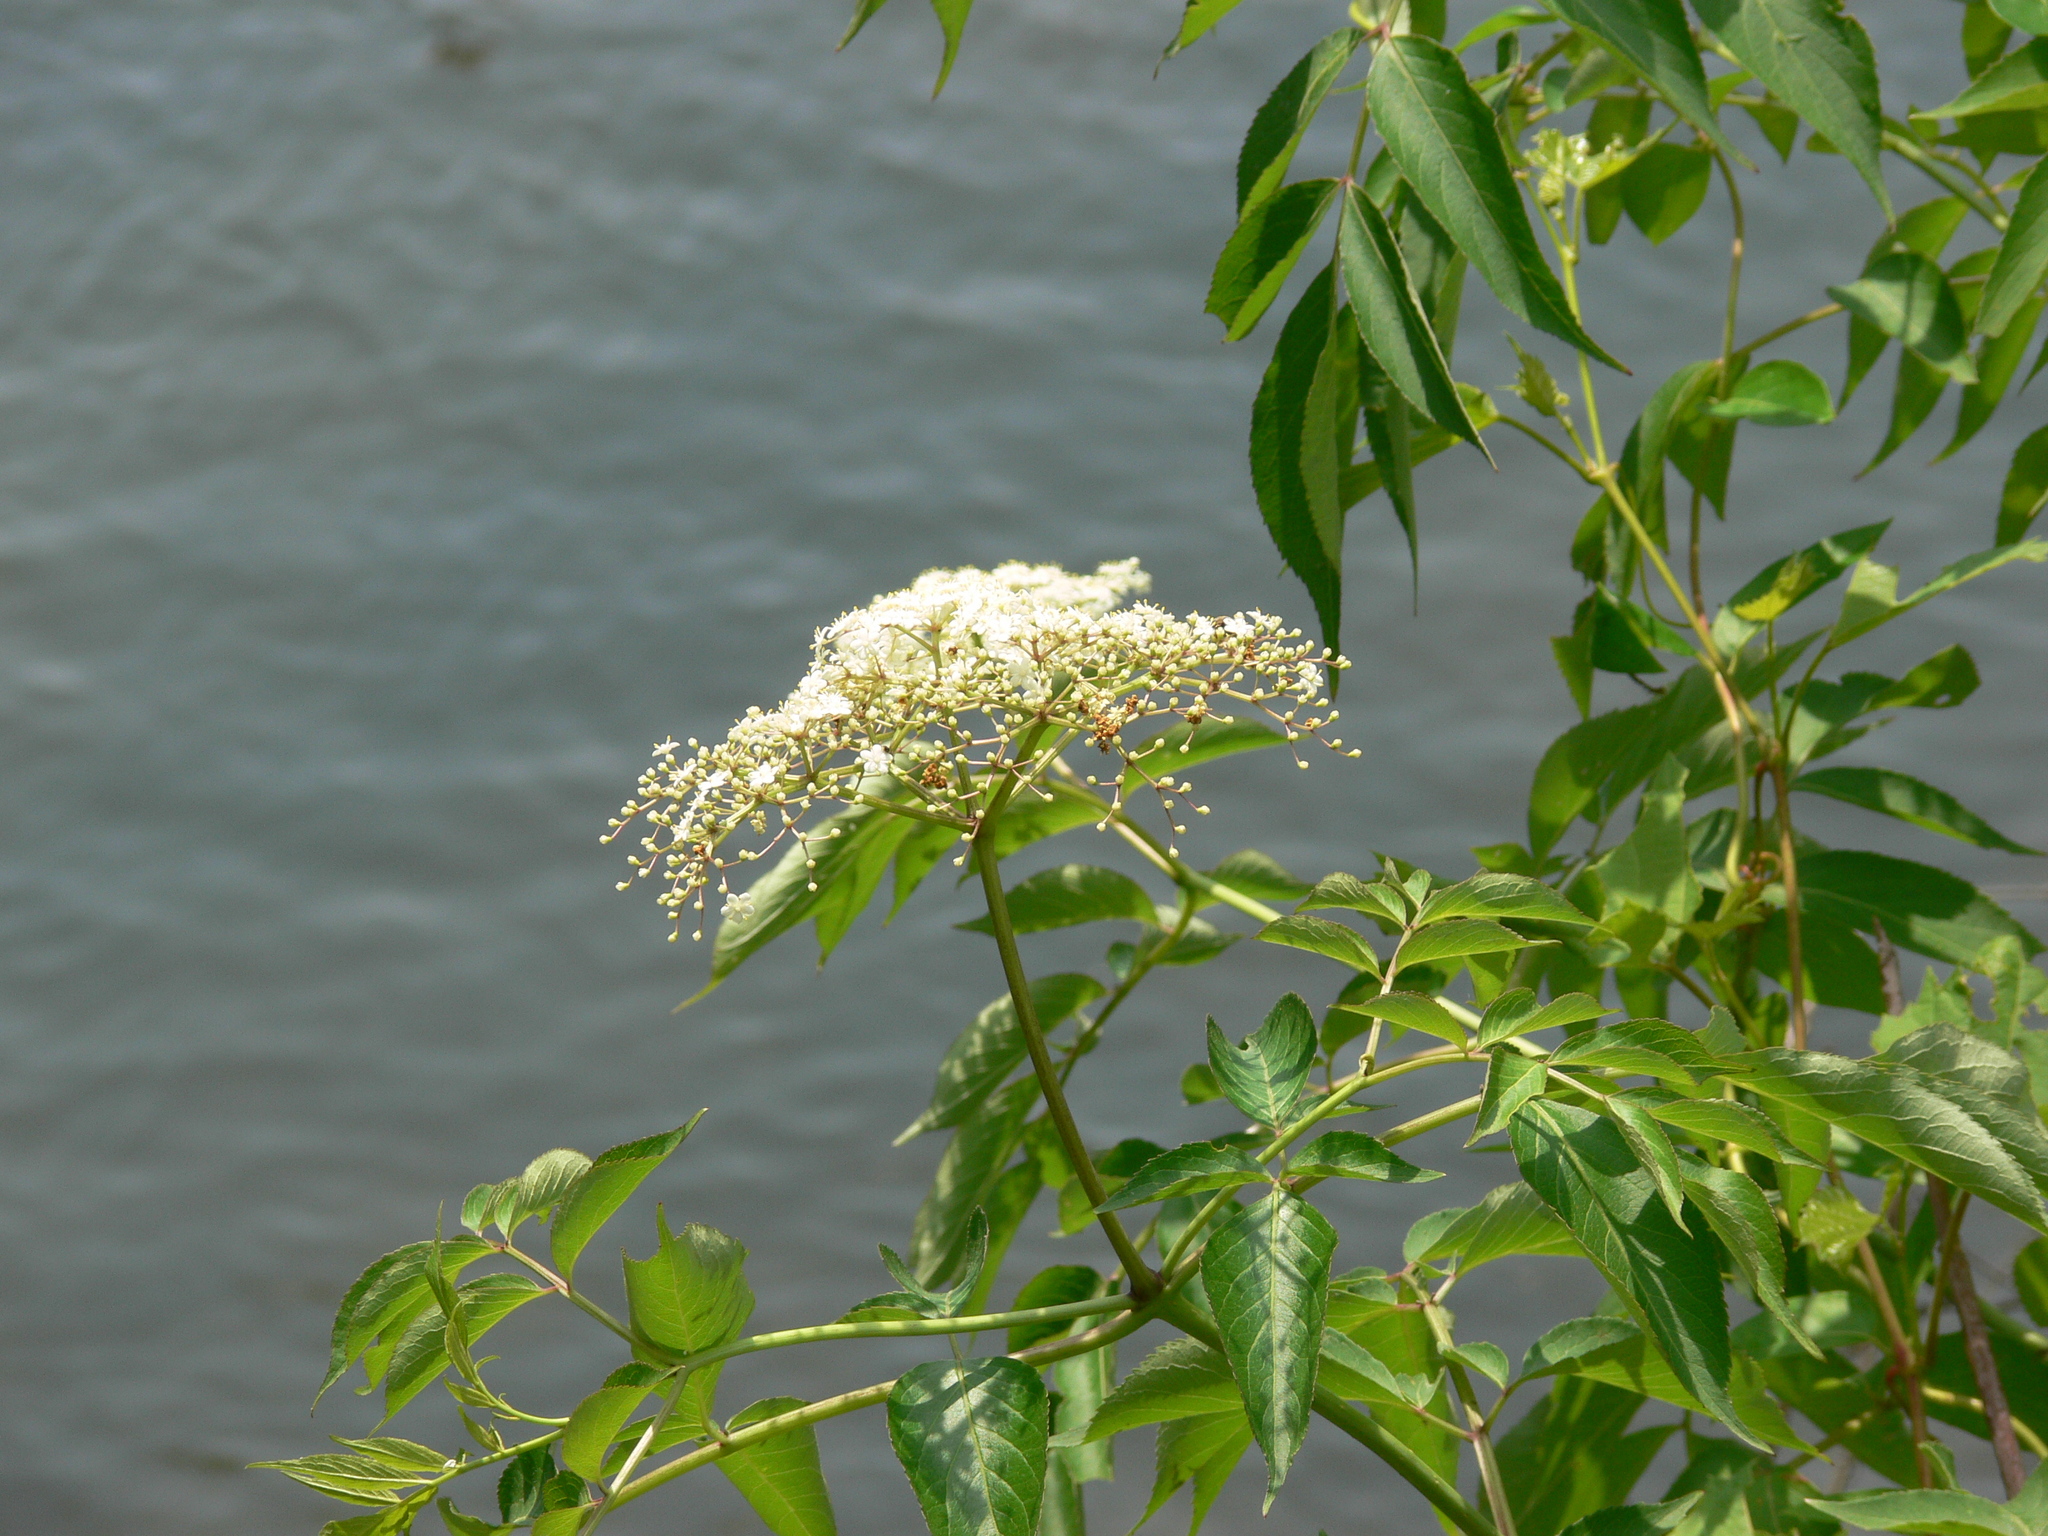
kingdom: Plantae
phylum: Tracheophyta
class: Magnoliopsida
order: Dipsacales
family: Viburnaceae
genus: Sambucus
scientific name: Sambucus canadensis
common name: American elder
